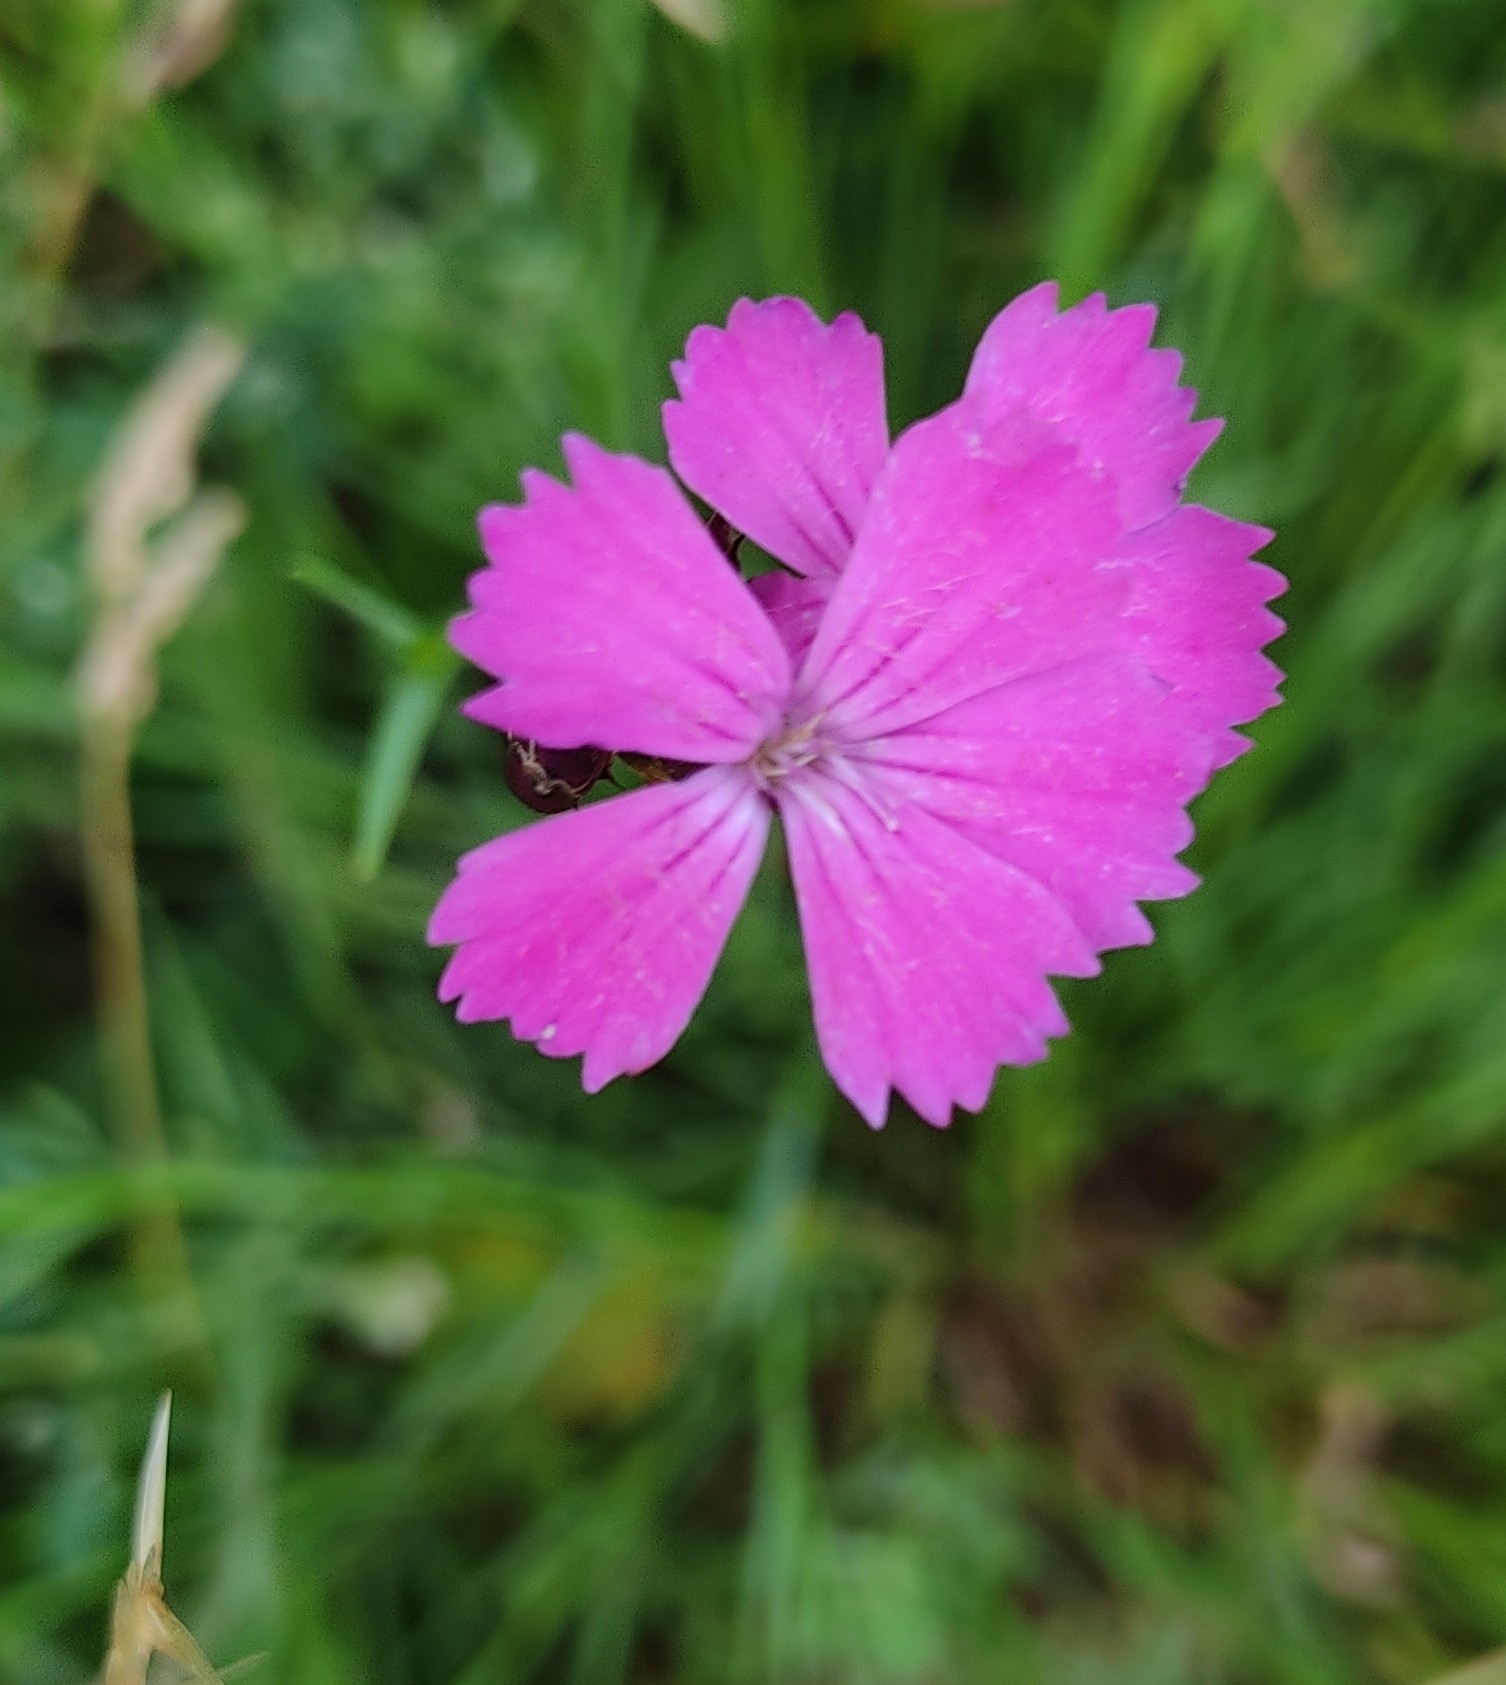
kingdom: Plantae
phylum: Tracheophyta
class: Magnoliopsida
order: Caryophyllales
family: Caryophyllaceae
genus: Dianthus
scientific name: Dianthus carthusianorum
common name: Carthusian pink
